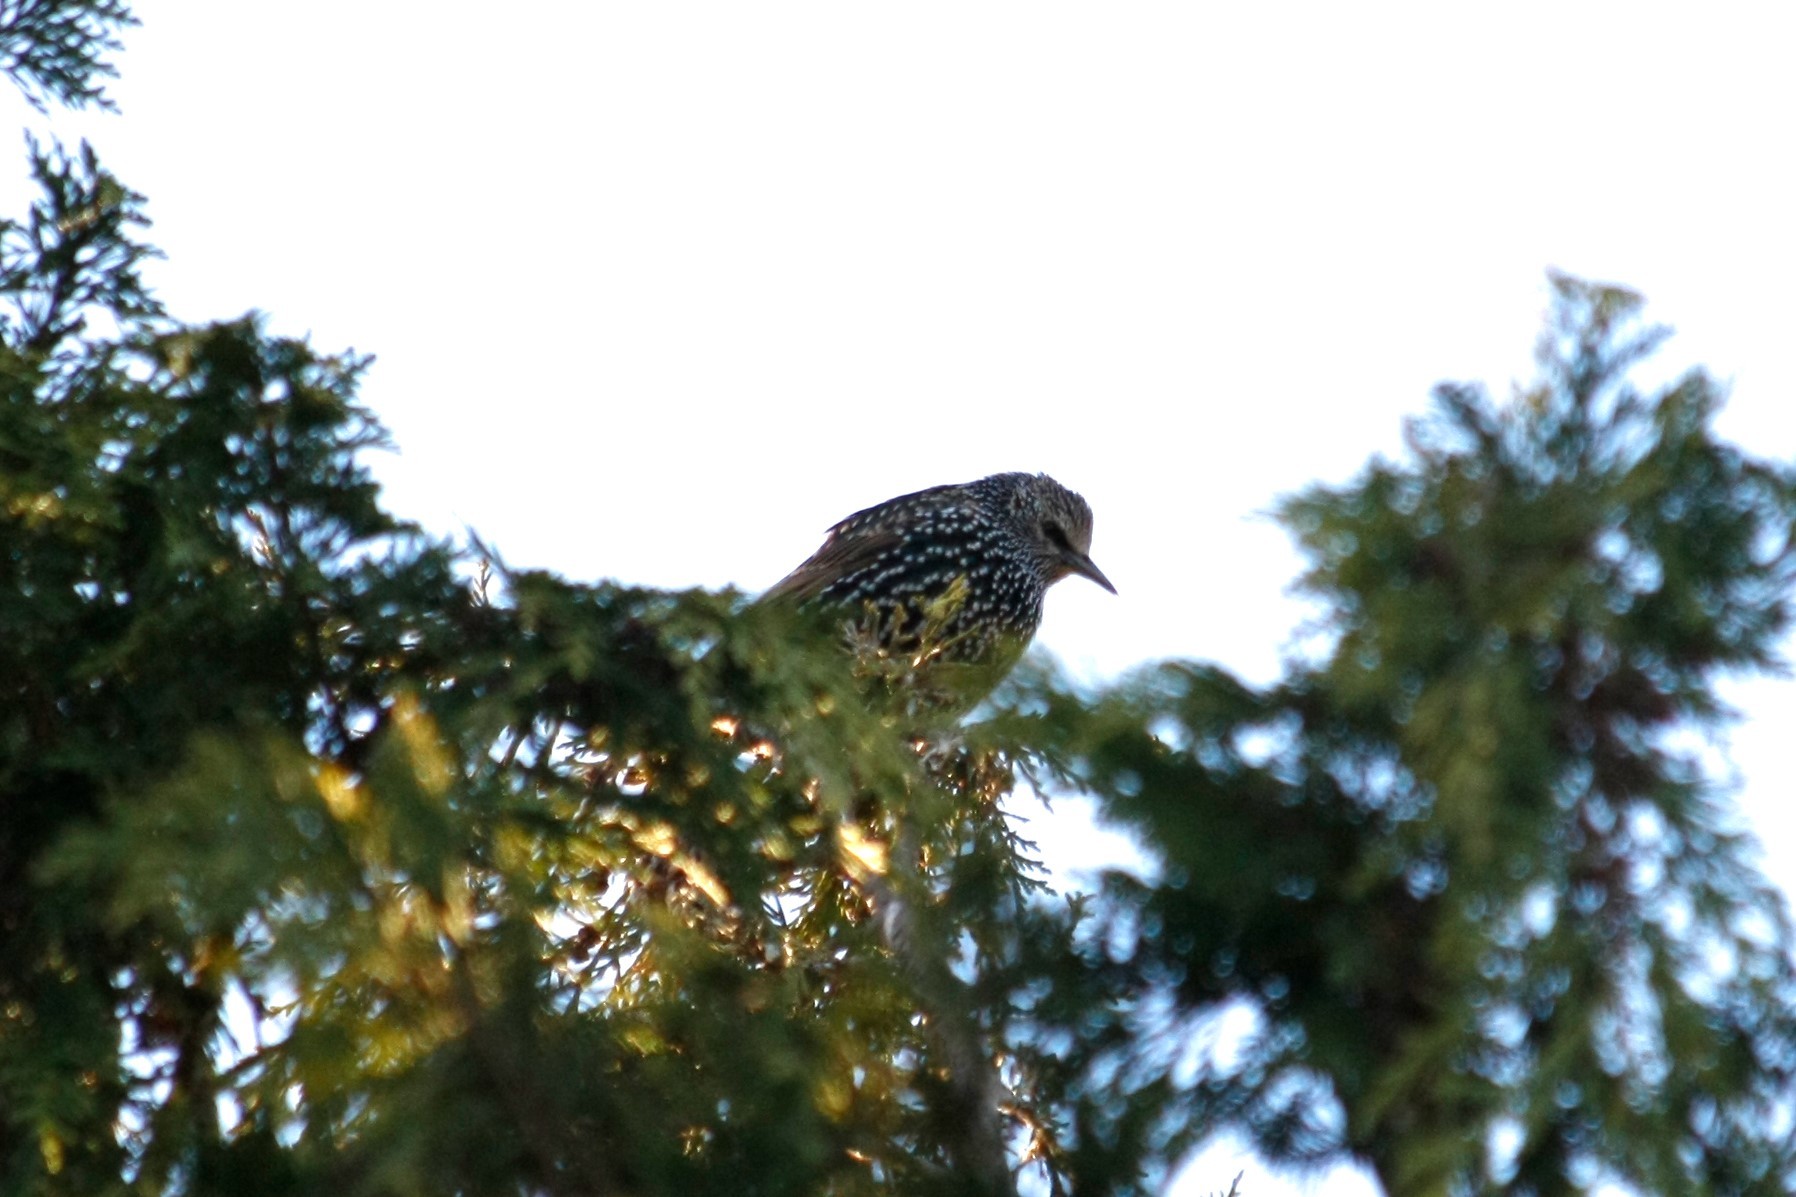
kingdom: Animalia
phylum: Chordata
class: Aves
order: Passeriformes
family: Sturnidae
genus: Sturnus
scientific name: Sturnus vulgaris
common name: Common starling
